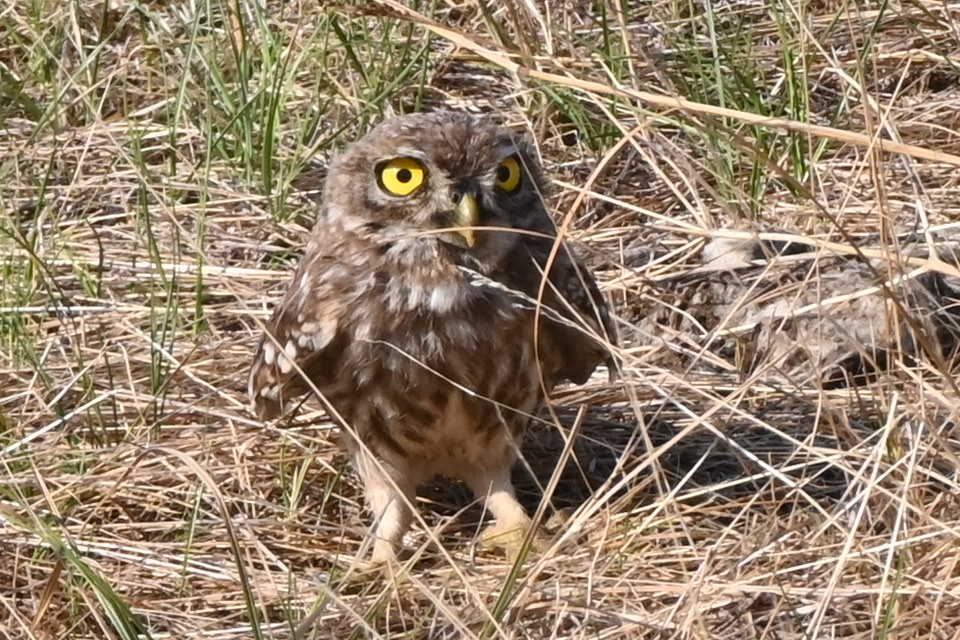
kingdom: Animalia
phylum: Chordata
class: Aves
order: Strigiformes
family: Strigidae
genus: Athene
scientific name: Athene noctua
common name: Little owl
